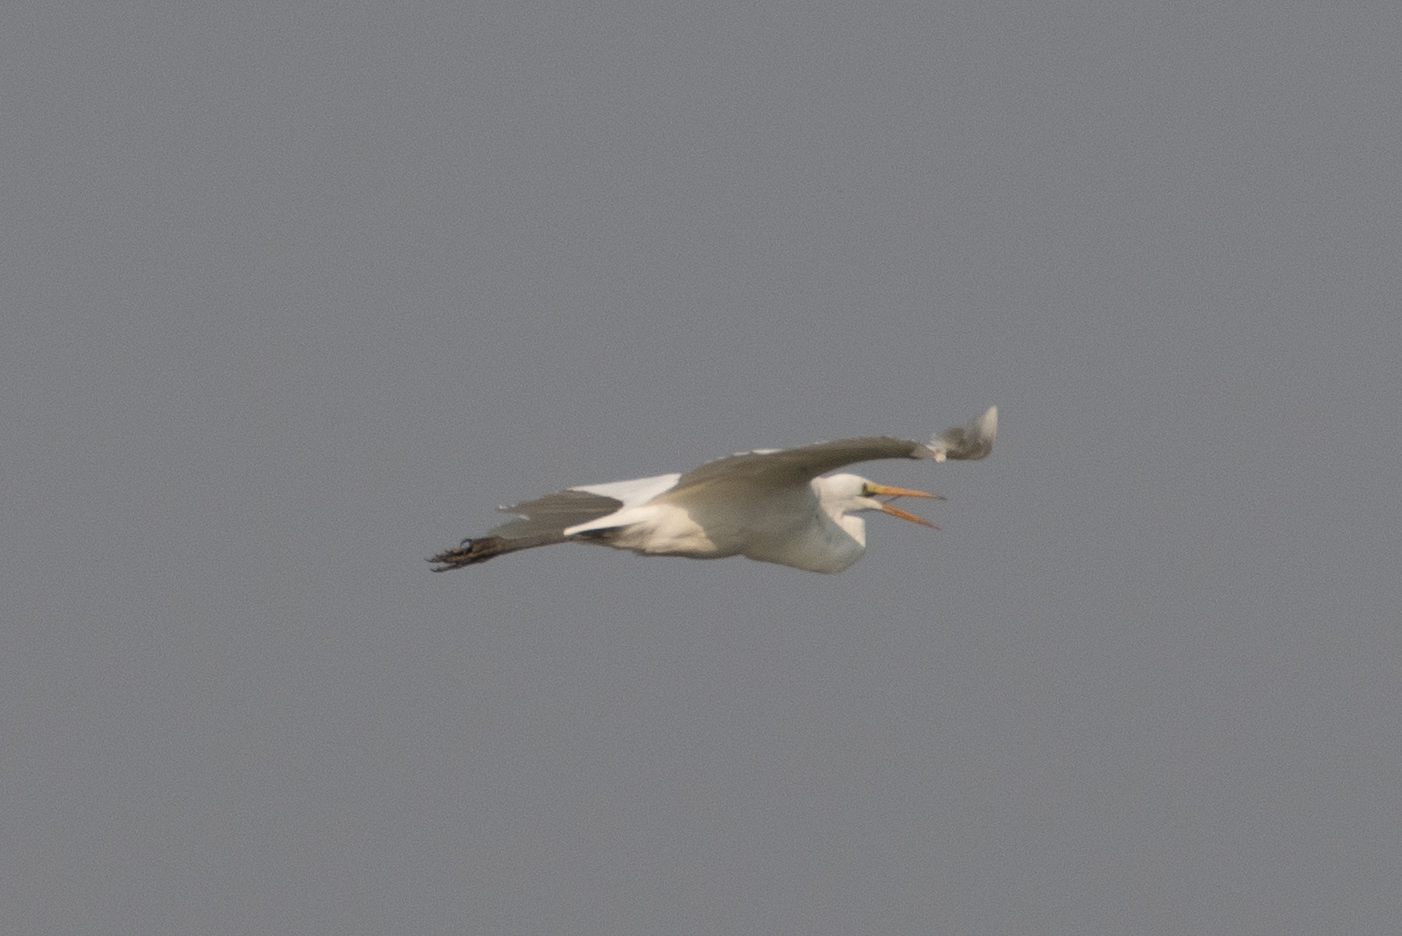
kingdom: Animalia
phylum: Chordata
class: Aves
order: Pelecaniformes
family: Ardeidae
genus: Ardea
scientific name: Ardea alba
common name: Great egret
